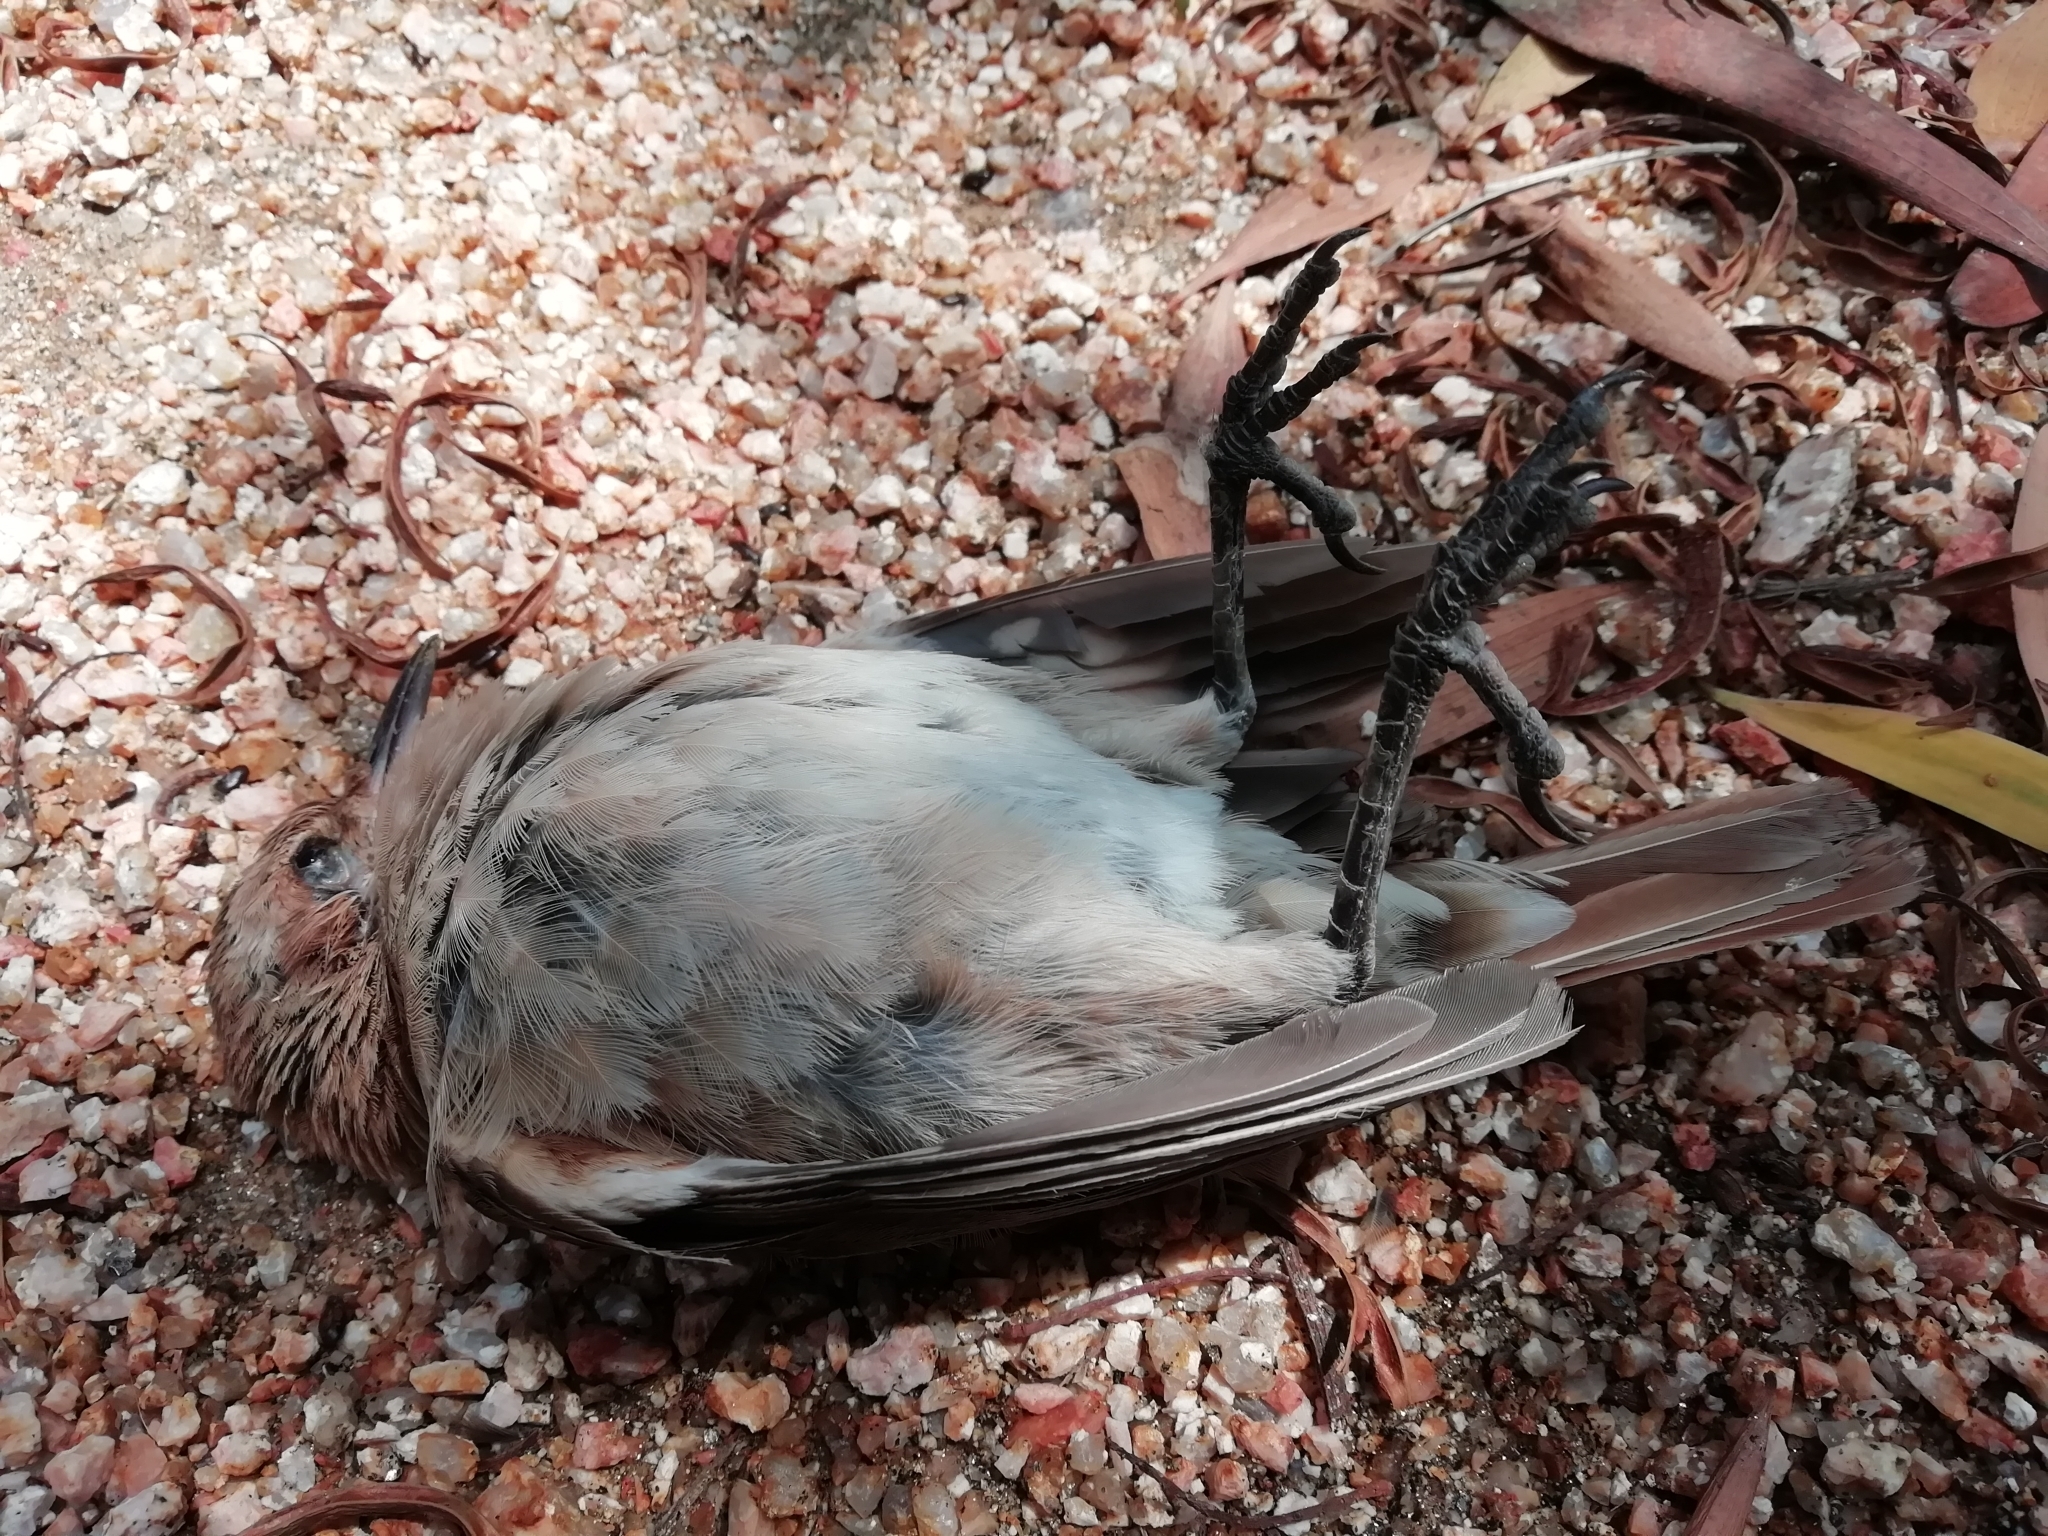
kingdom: Animalia
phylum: Chordata
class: Aves
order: Passeriformes
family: Furnariidae
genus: Furnarius
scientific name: Furnarius rufus
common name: Rufous hornero
